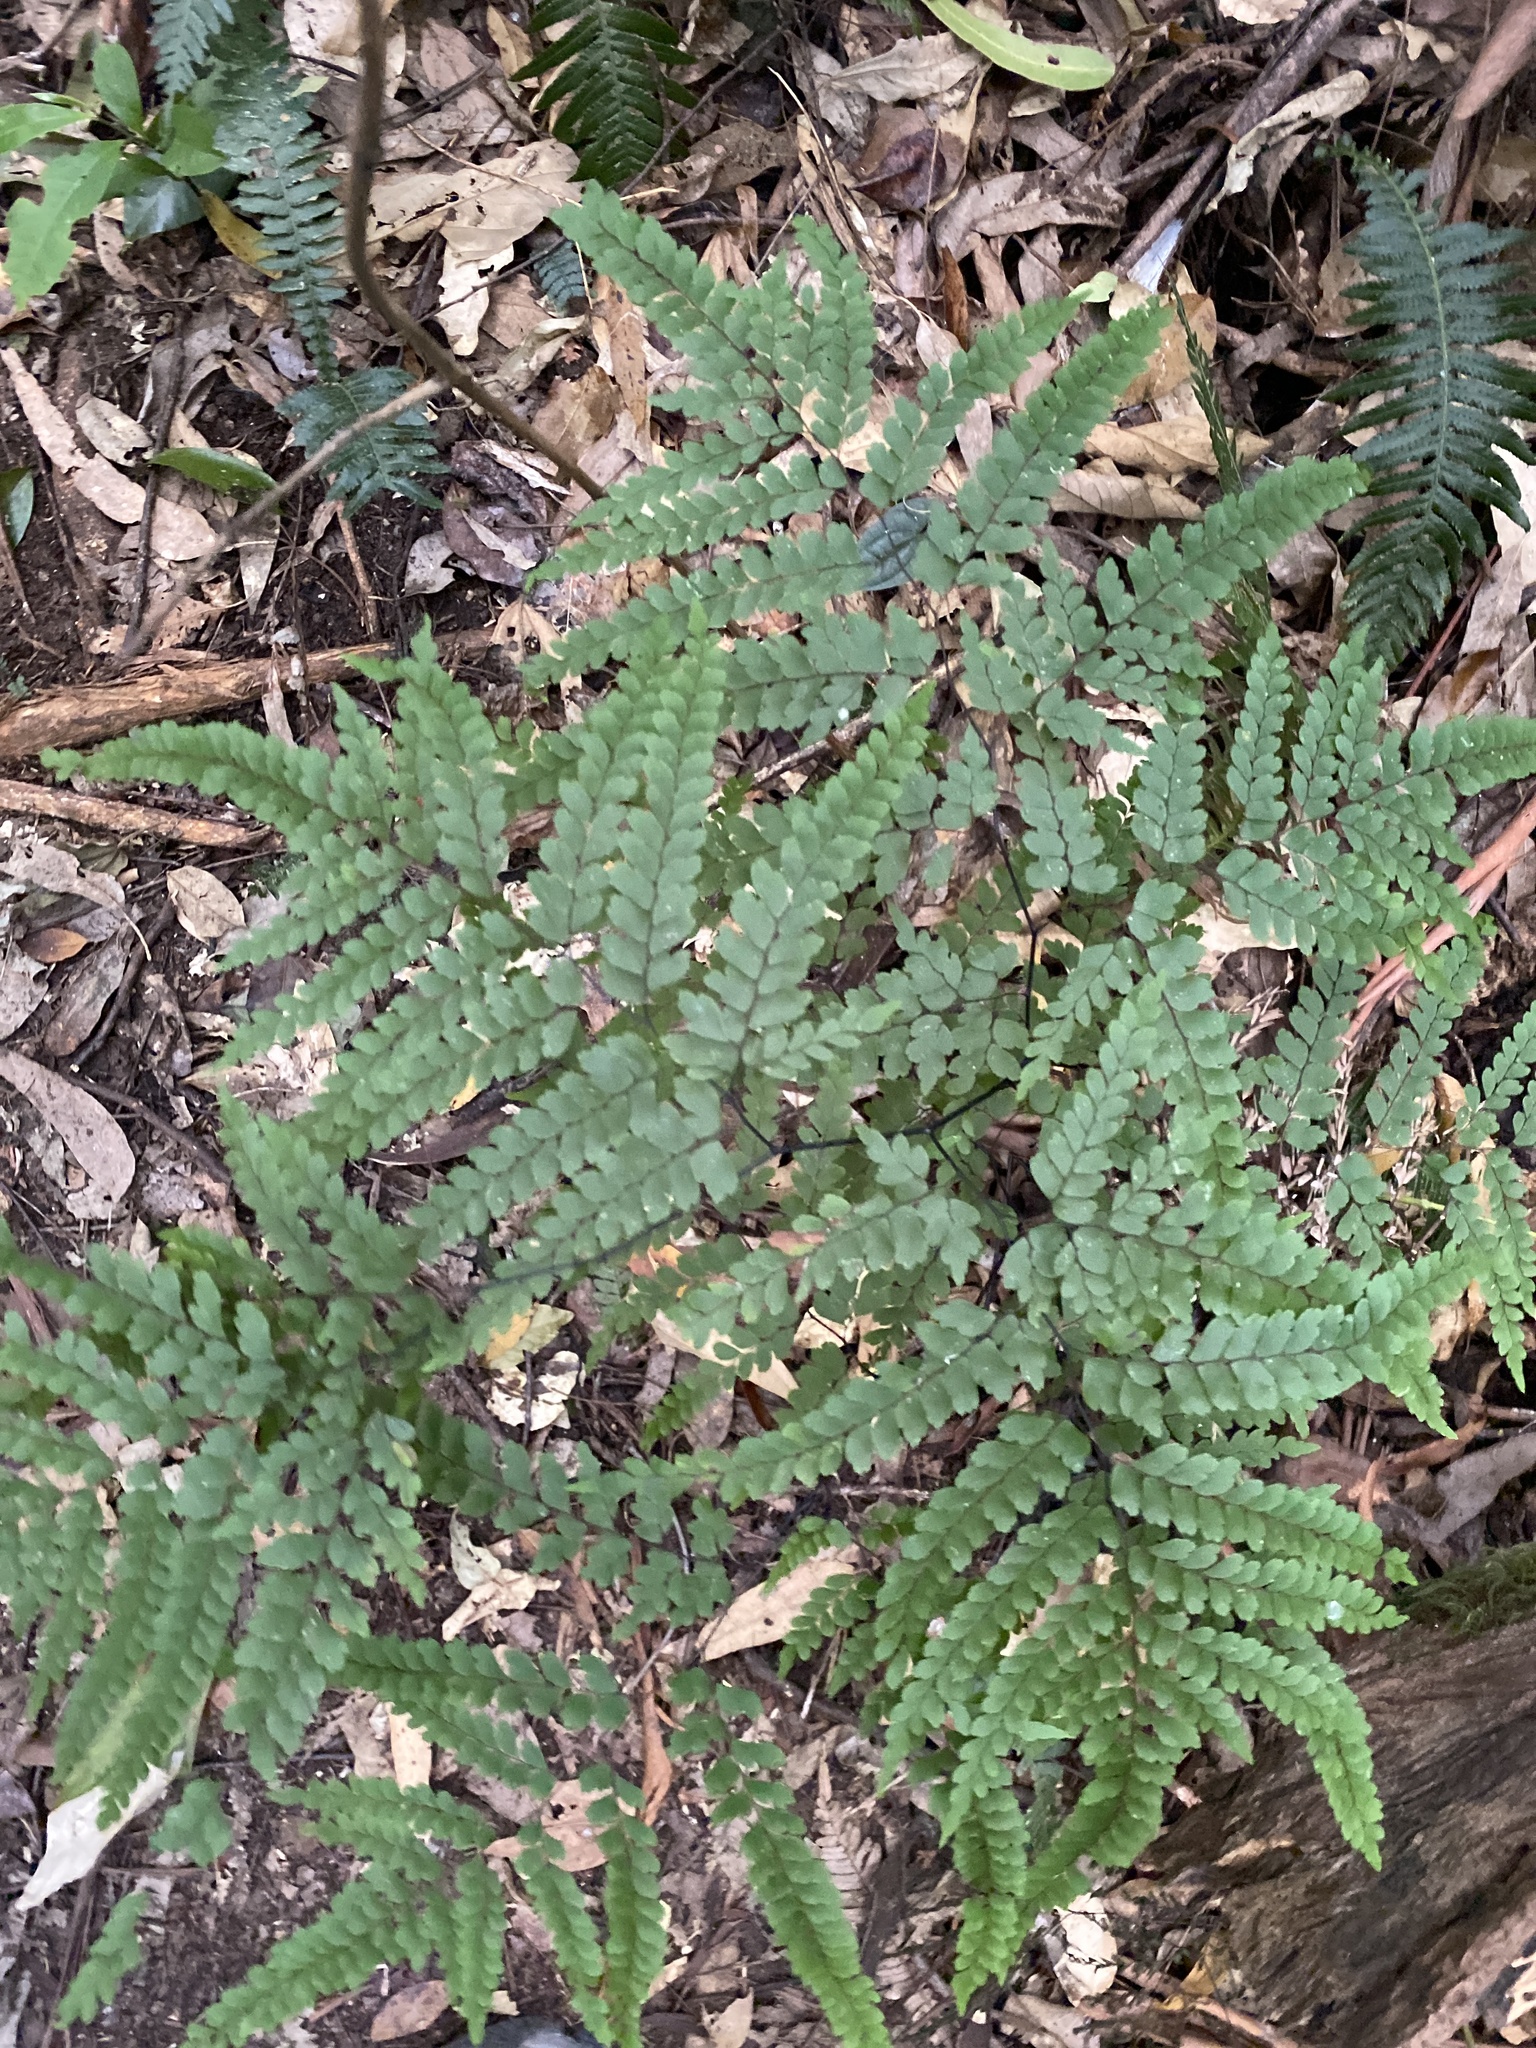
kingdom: Plantae
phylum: Tracheophyta
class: Polypodiopsida
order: Polypodiales
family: Pteridaceae
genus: Adiantum
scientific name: Adiantum formosum
